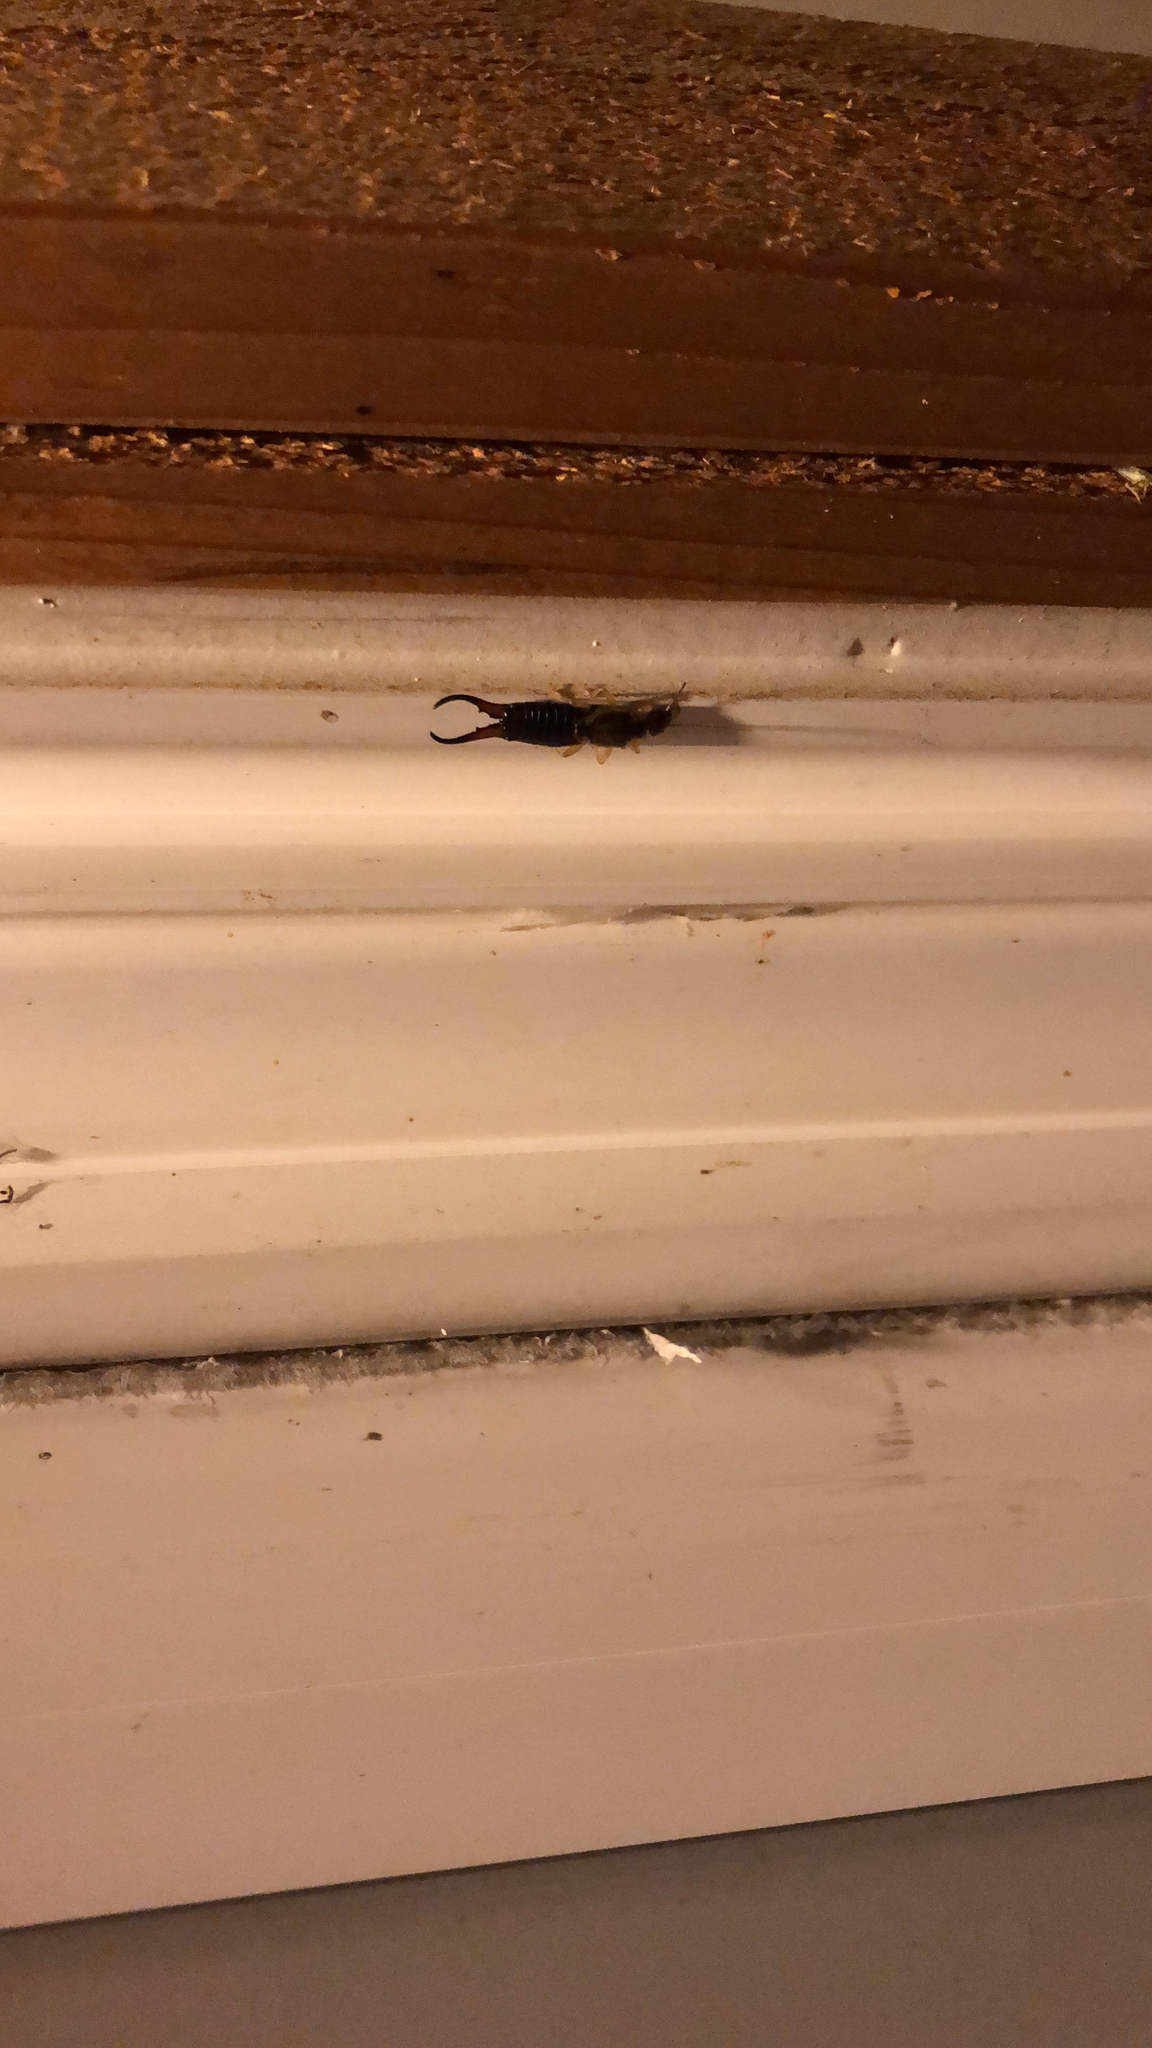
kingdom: Animalia
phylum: Arthropoda
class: Insecta
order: Dermaptera
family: Forficulidae
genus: Forficula
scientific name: Forficula
